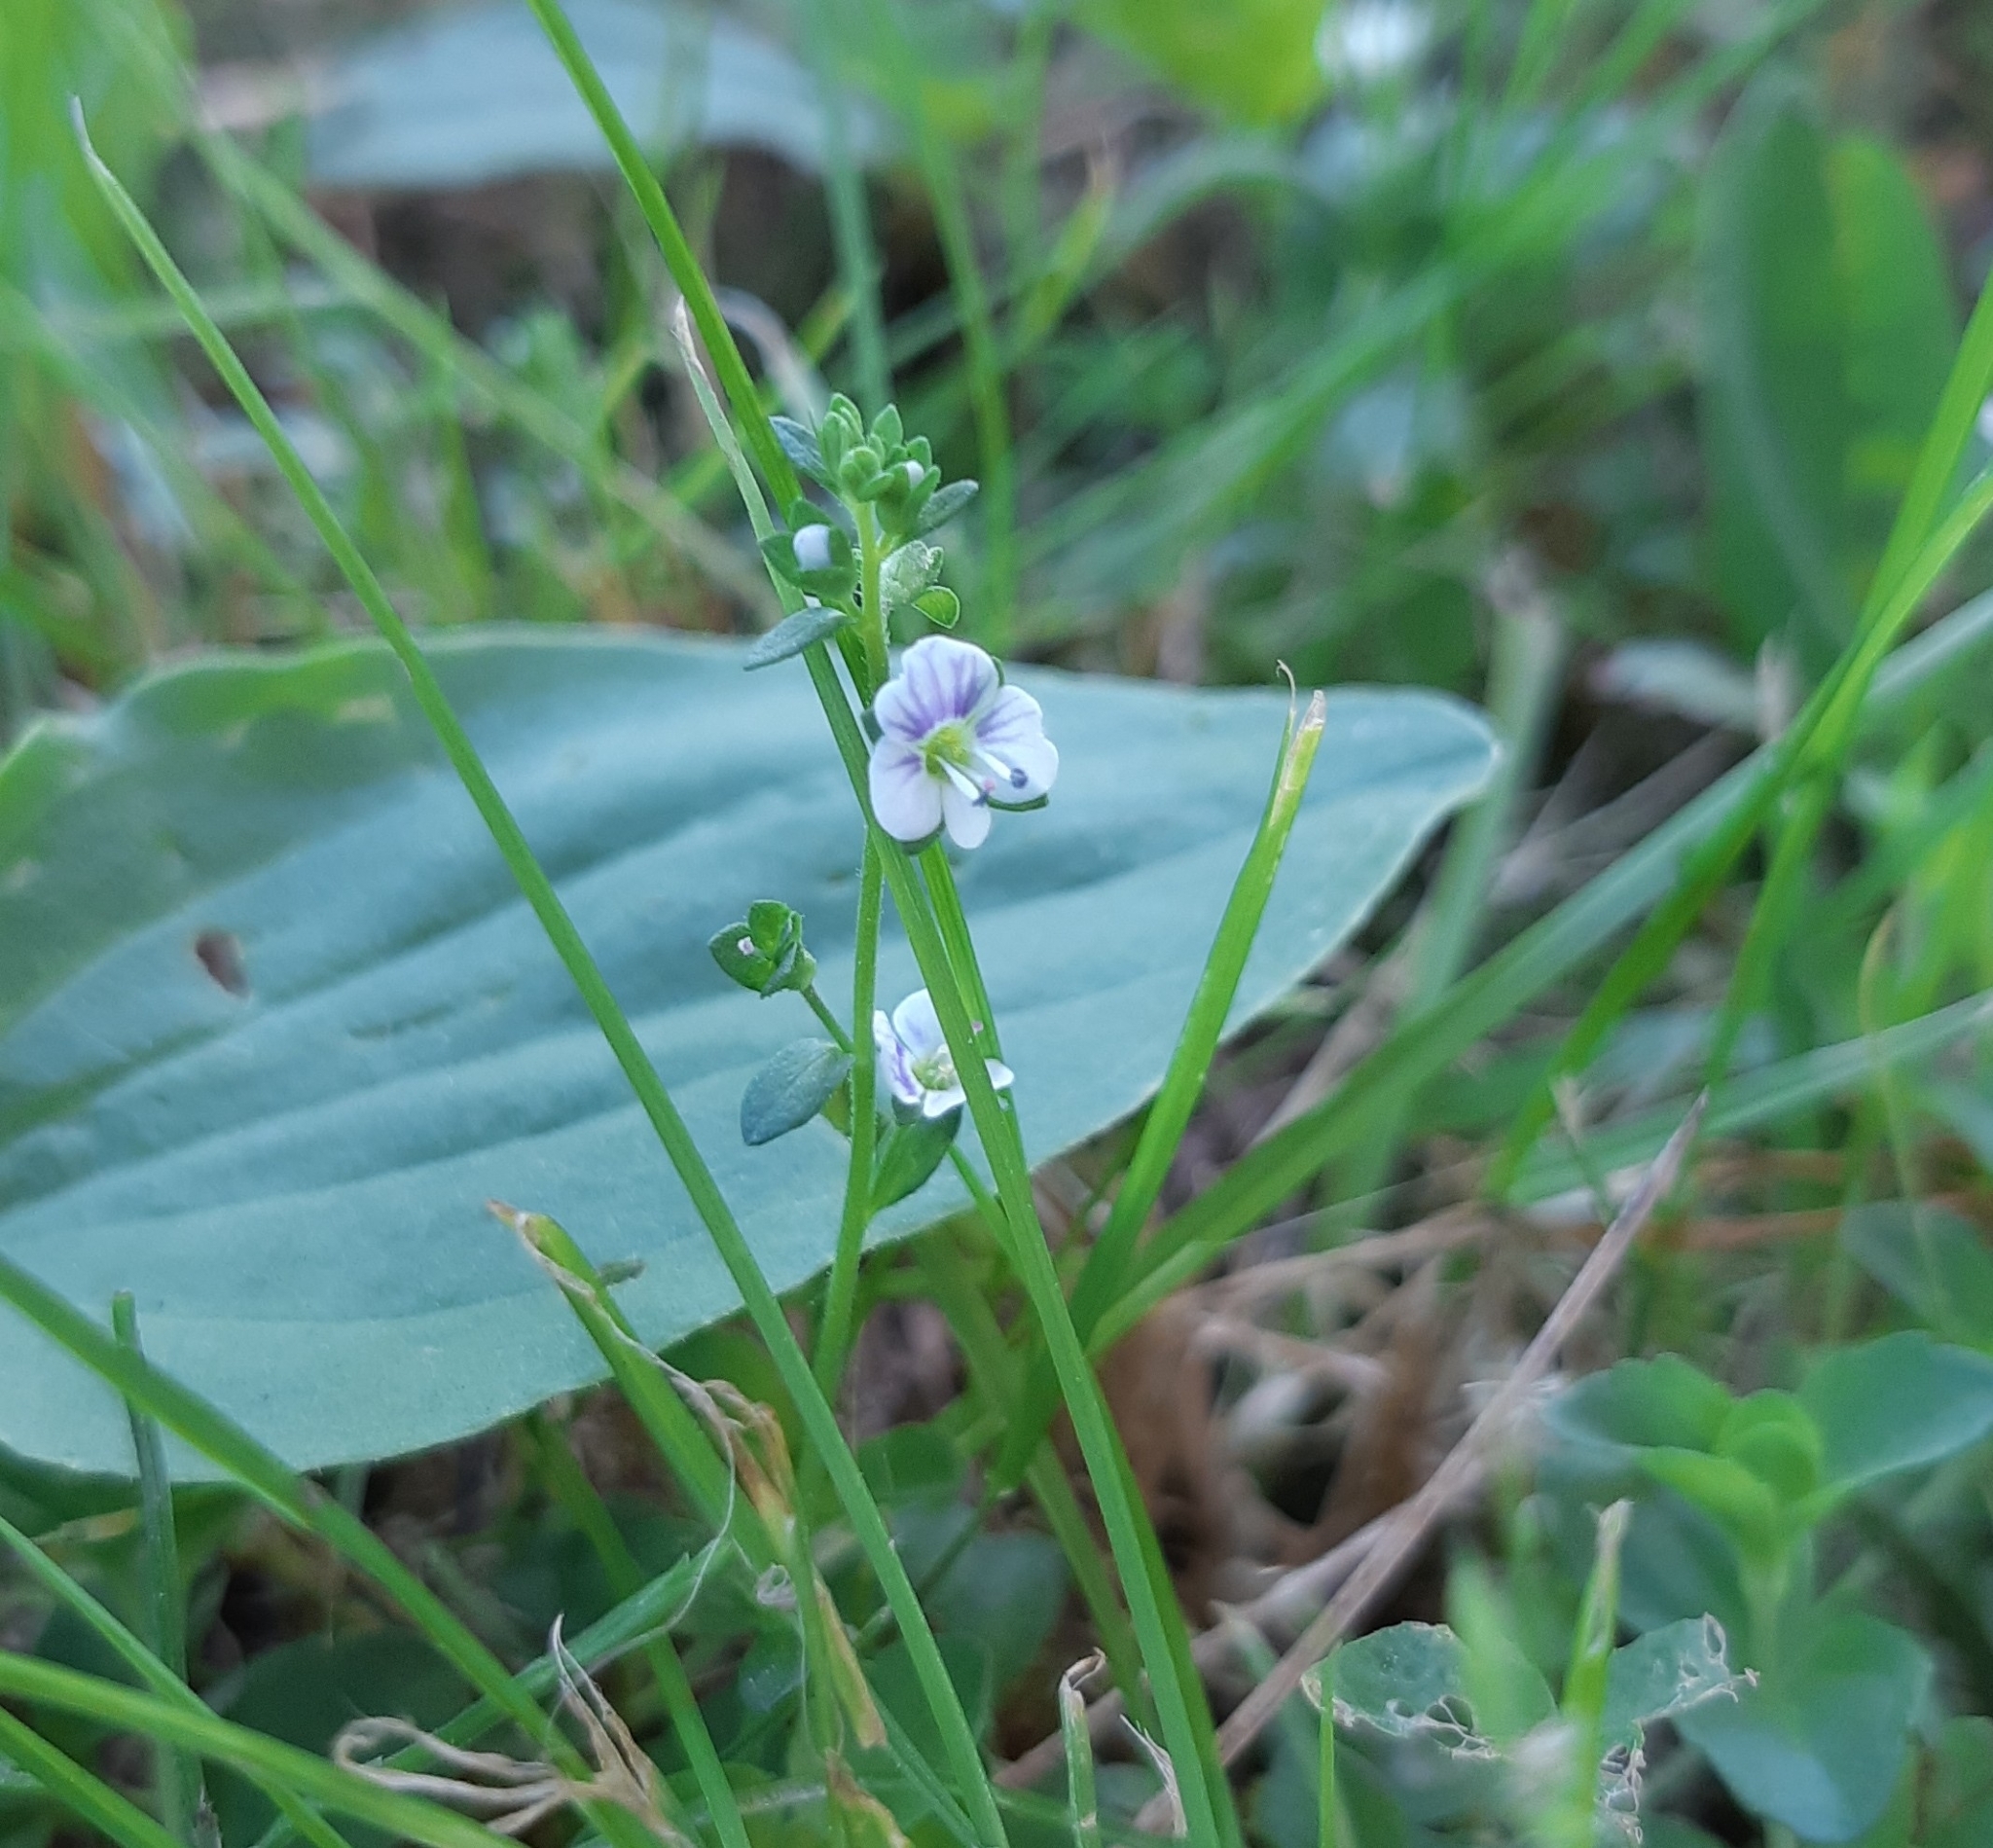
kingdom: Plantae
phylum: Tracheophyta
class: Magnoliopsida
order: Lamiales
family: Plantaginaceae
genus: Veronica
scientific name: Veronica serpyllifolia
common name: Thyme-leaved speedwell
